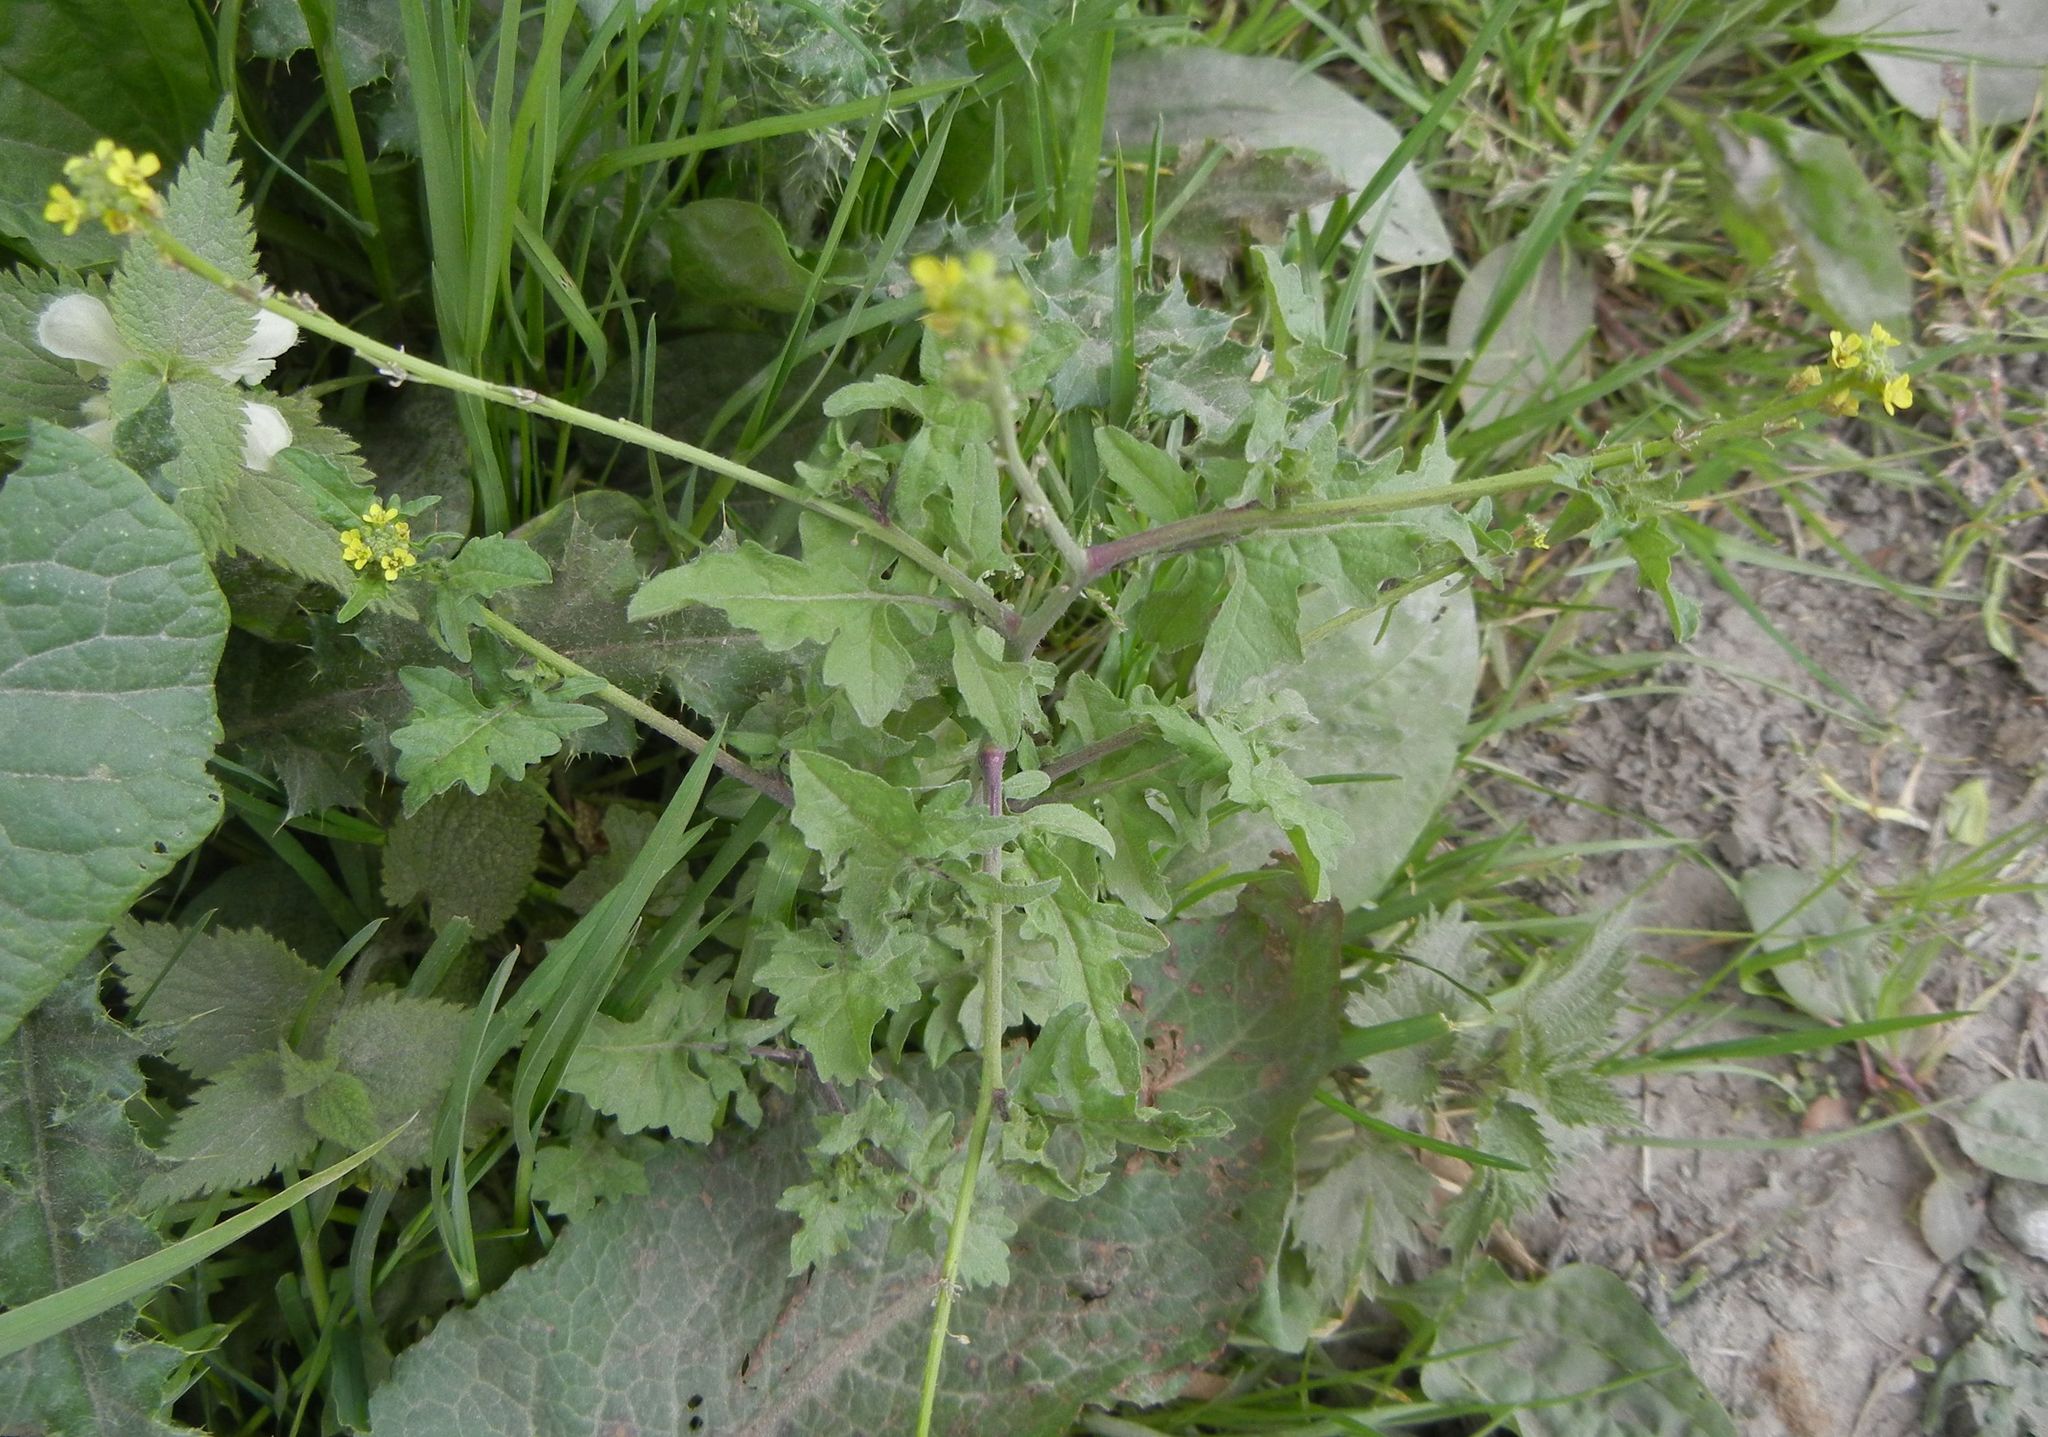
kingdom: Plantae
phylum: Tracheophyta
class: Magnoliopsida
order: Brassicales
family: Brassicaceae
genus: Sisymbrium
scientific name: Sisymbrium officinale
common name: Hedge mustard
